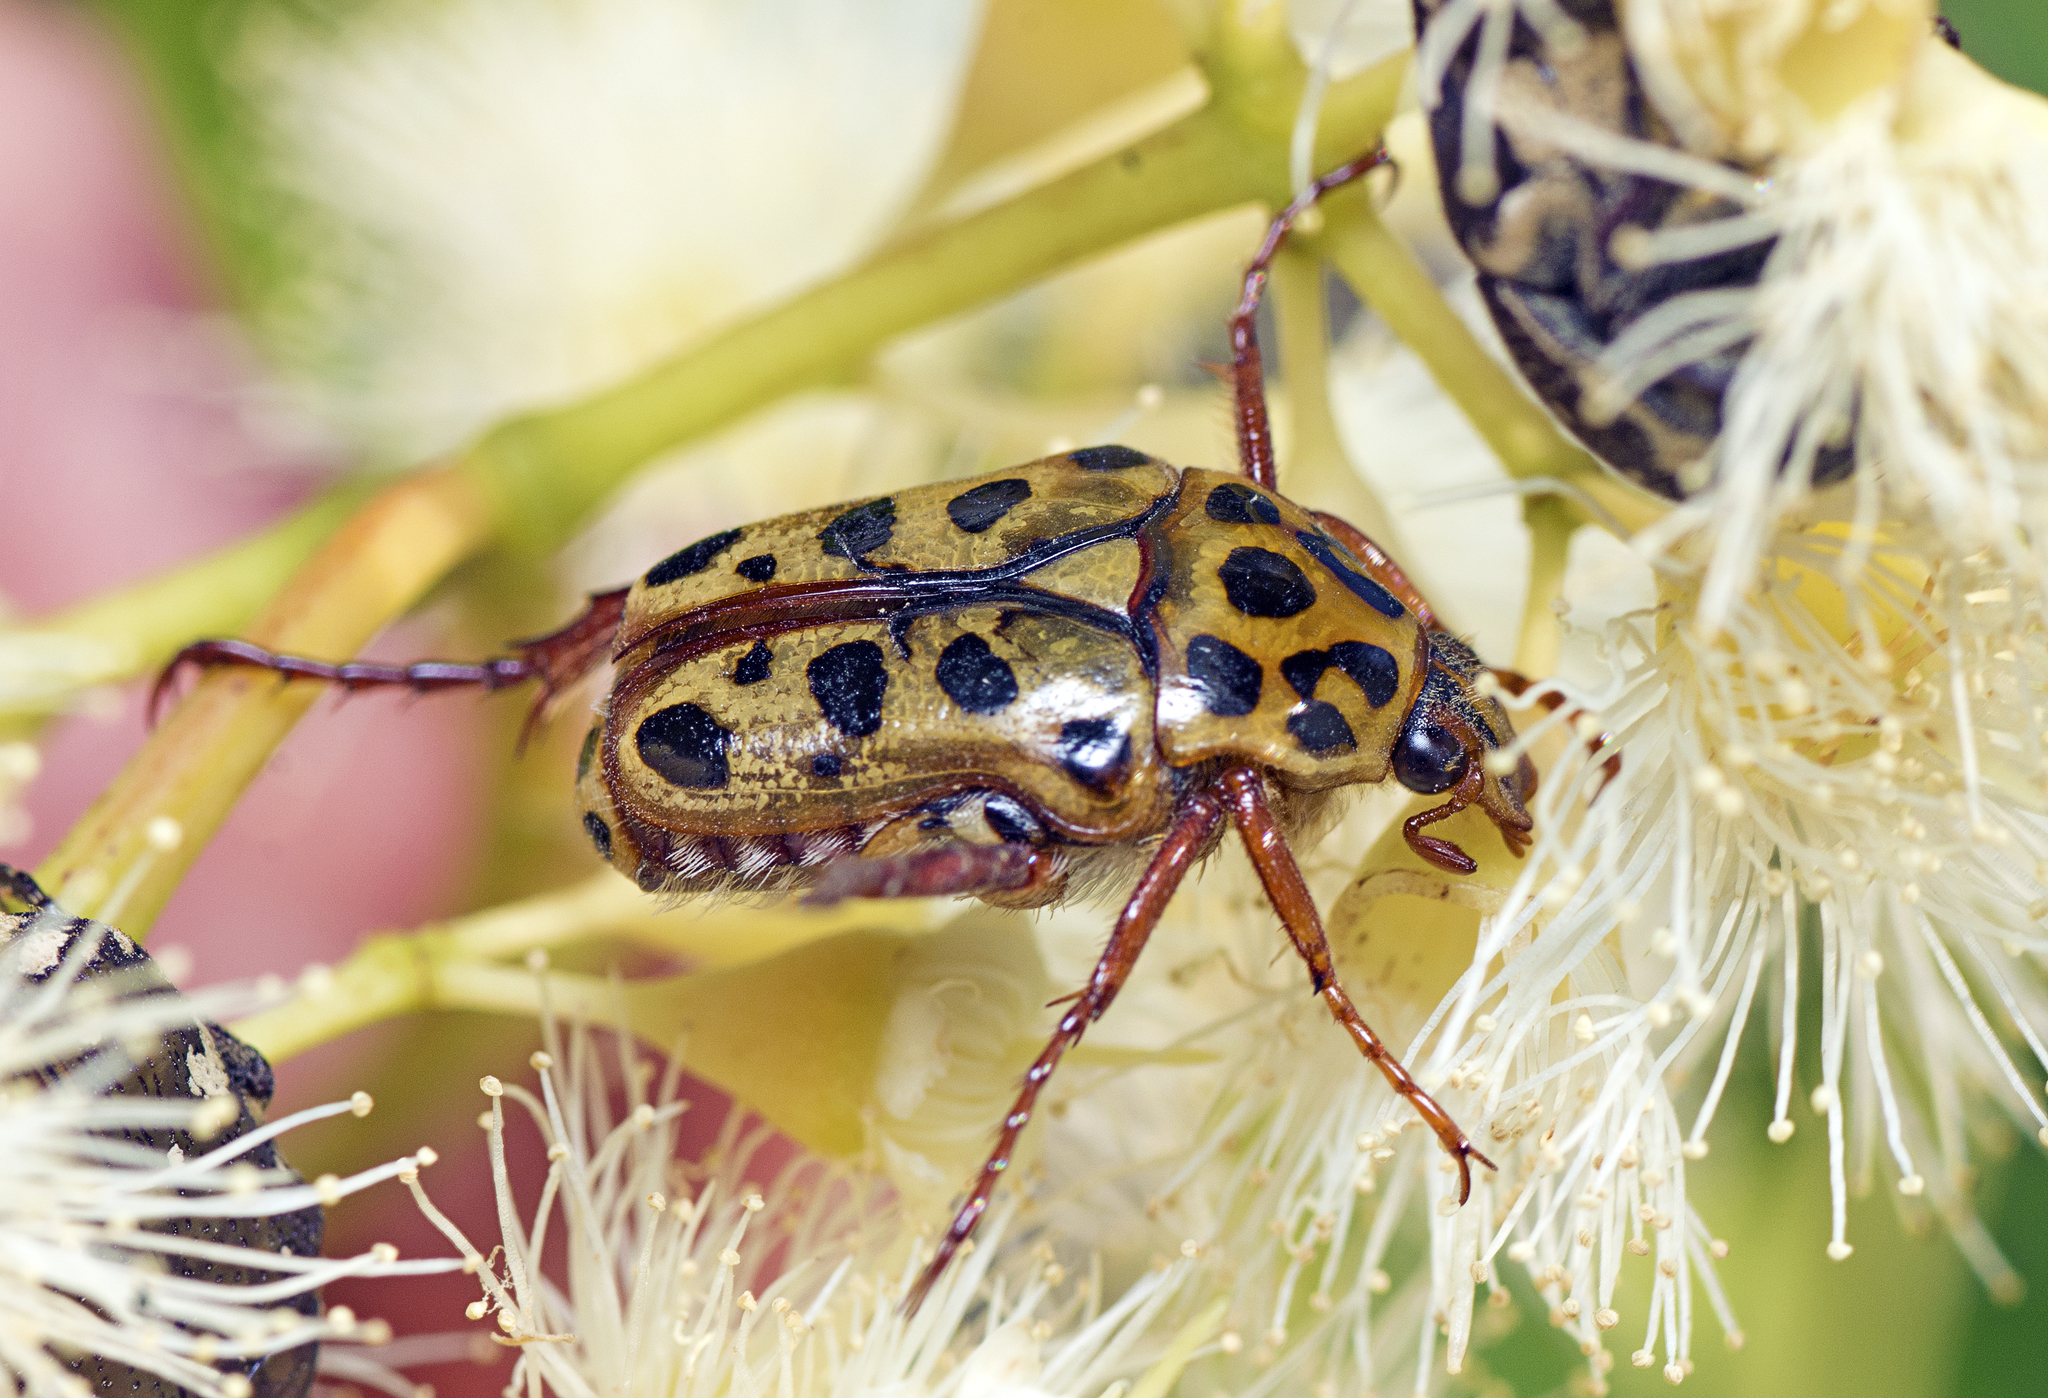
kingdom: Animalia
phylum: Arthropoda
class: Insecta
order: Coleoptera
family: Scarabaeidae
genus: Neorrhina
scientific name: Neorrhina punctatum
